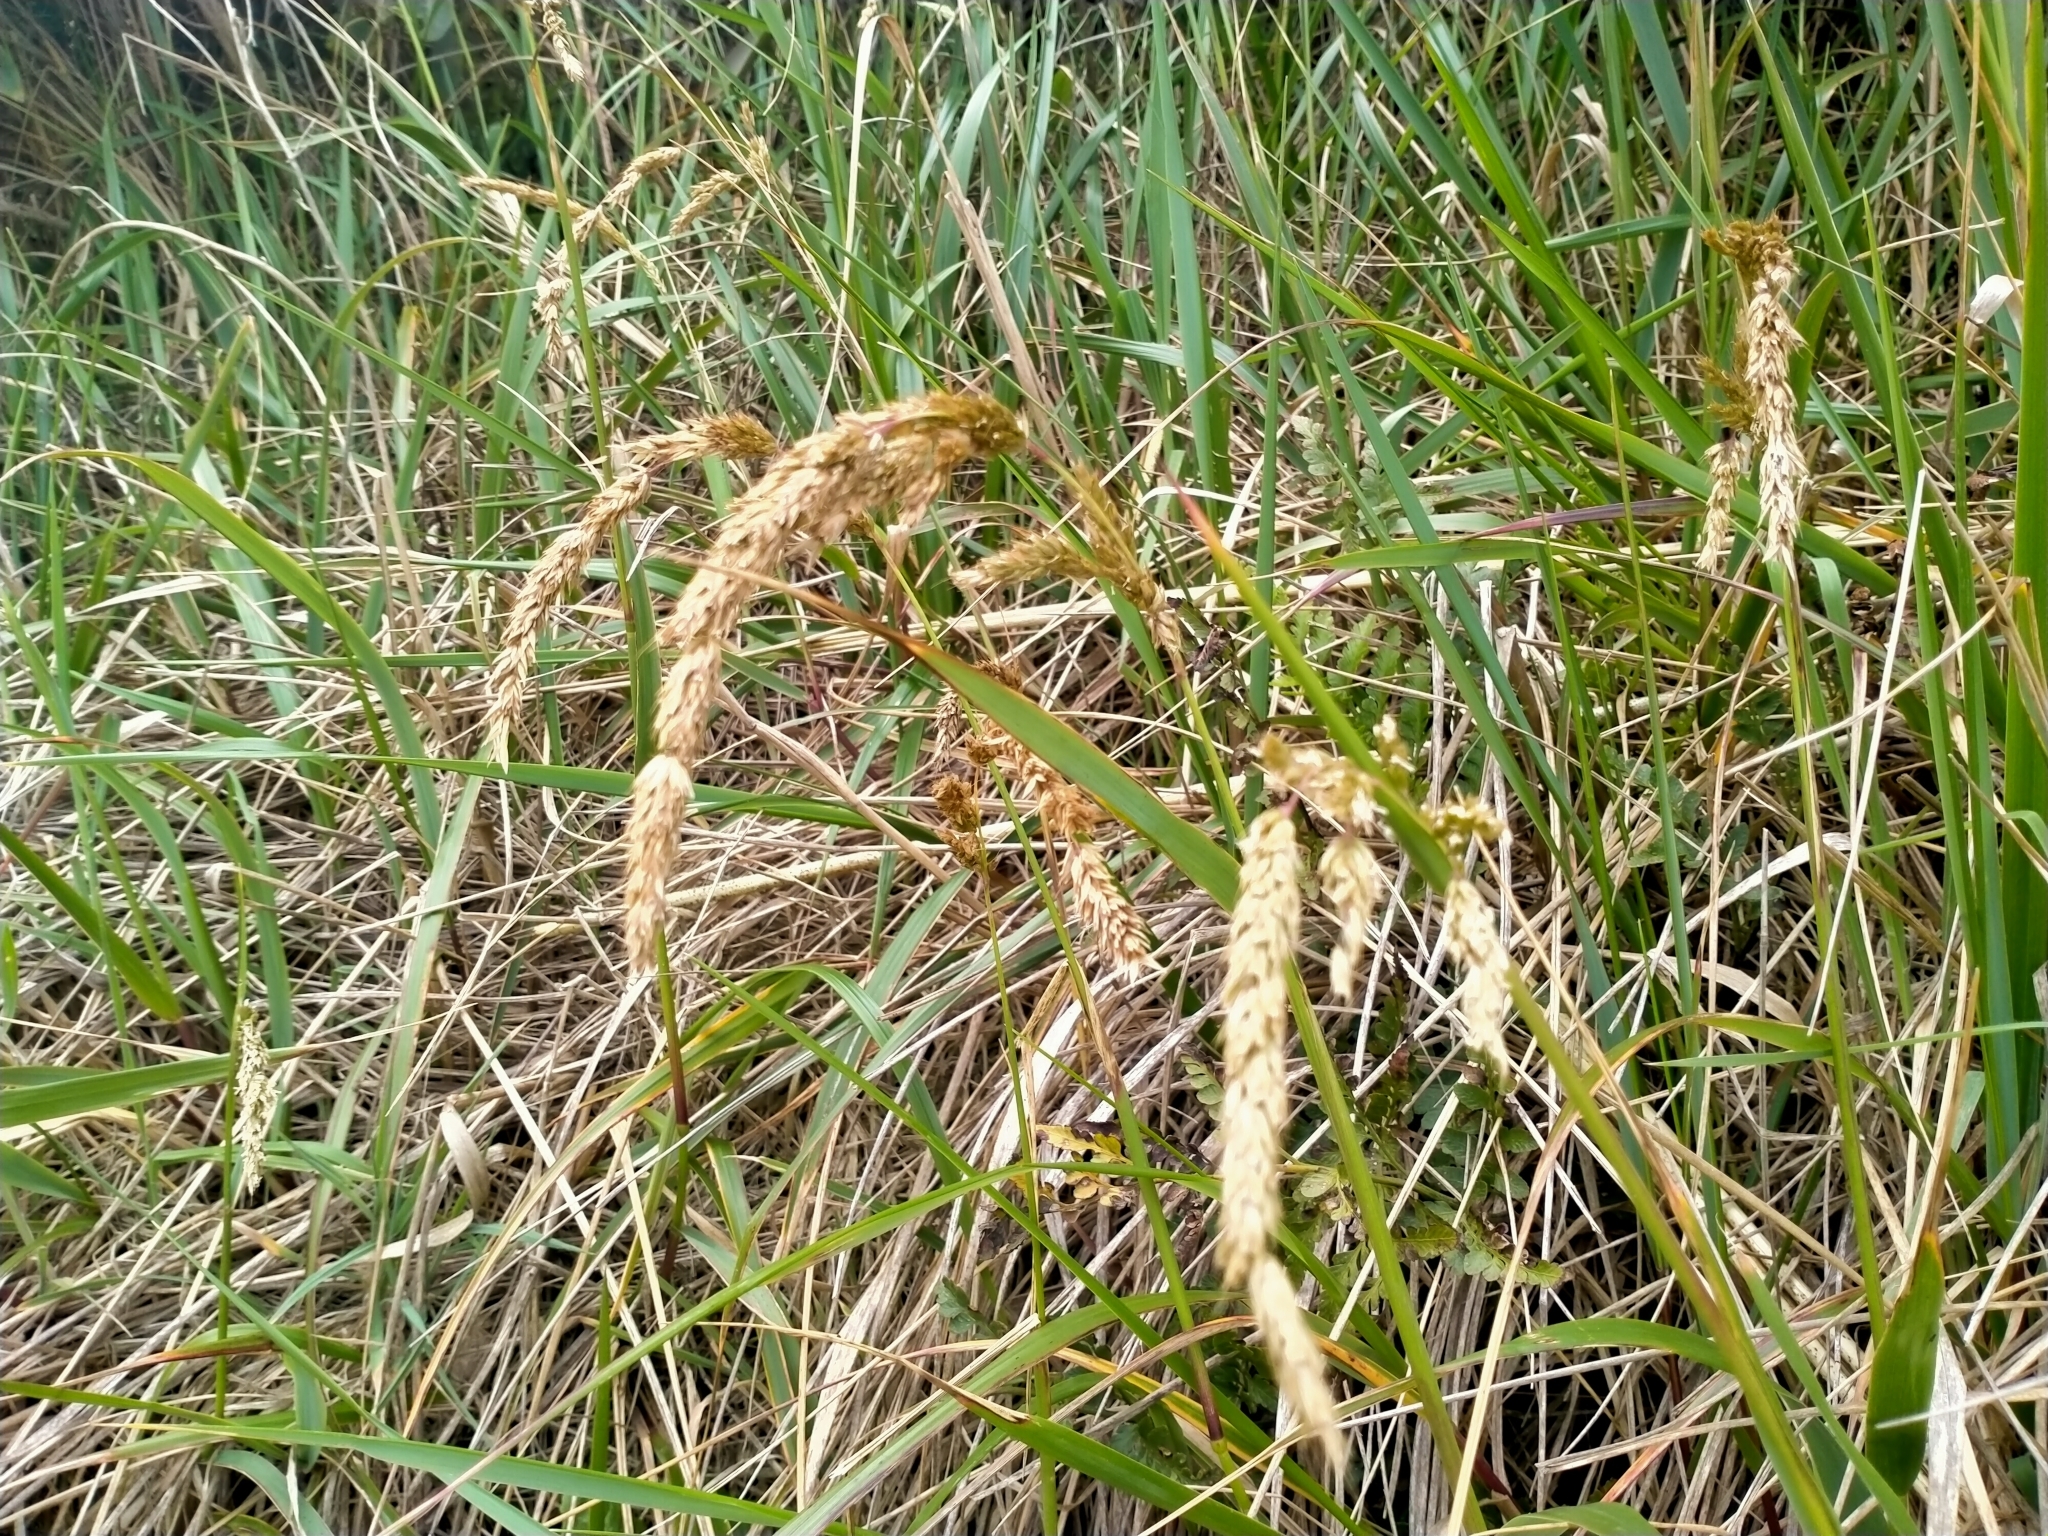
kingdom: Plantae
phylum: Tracheophyta
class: Liliopsida
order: Poales
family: Poaceae
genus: Anthoxanthum
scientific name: Anthoxanthum redolens
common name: Sweet holy grass
